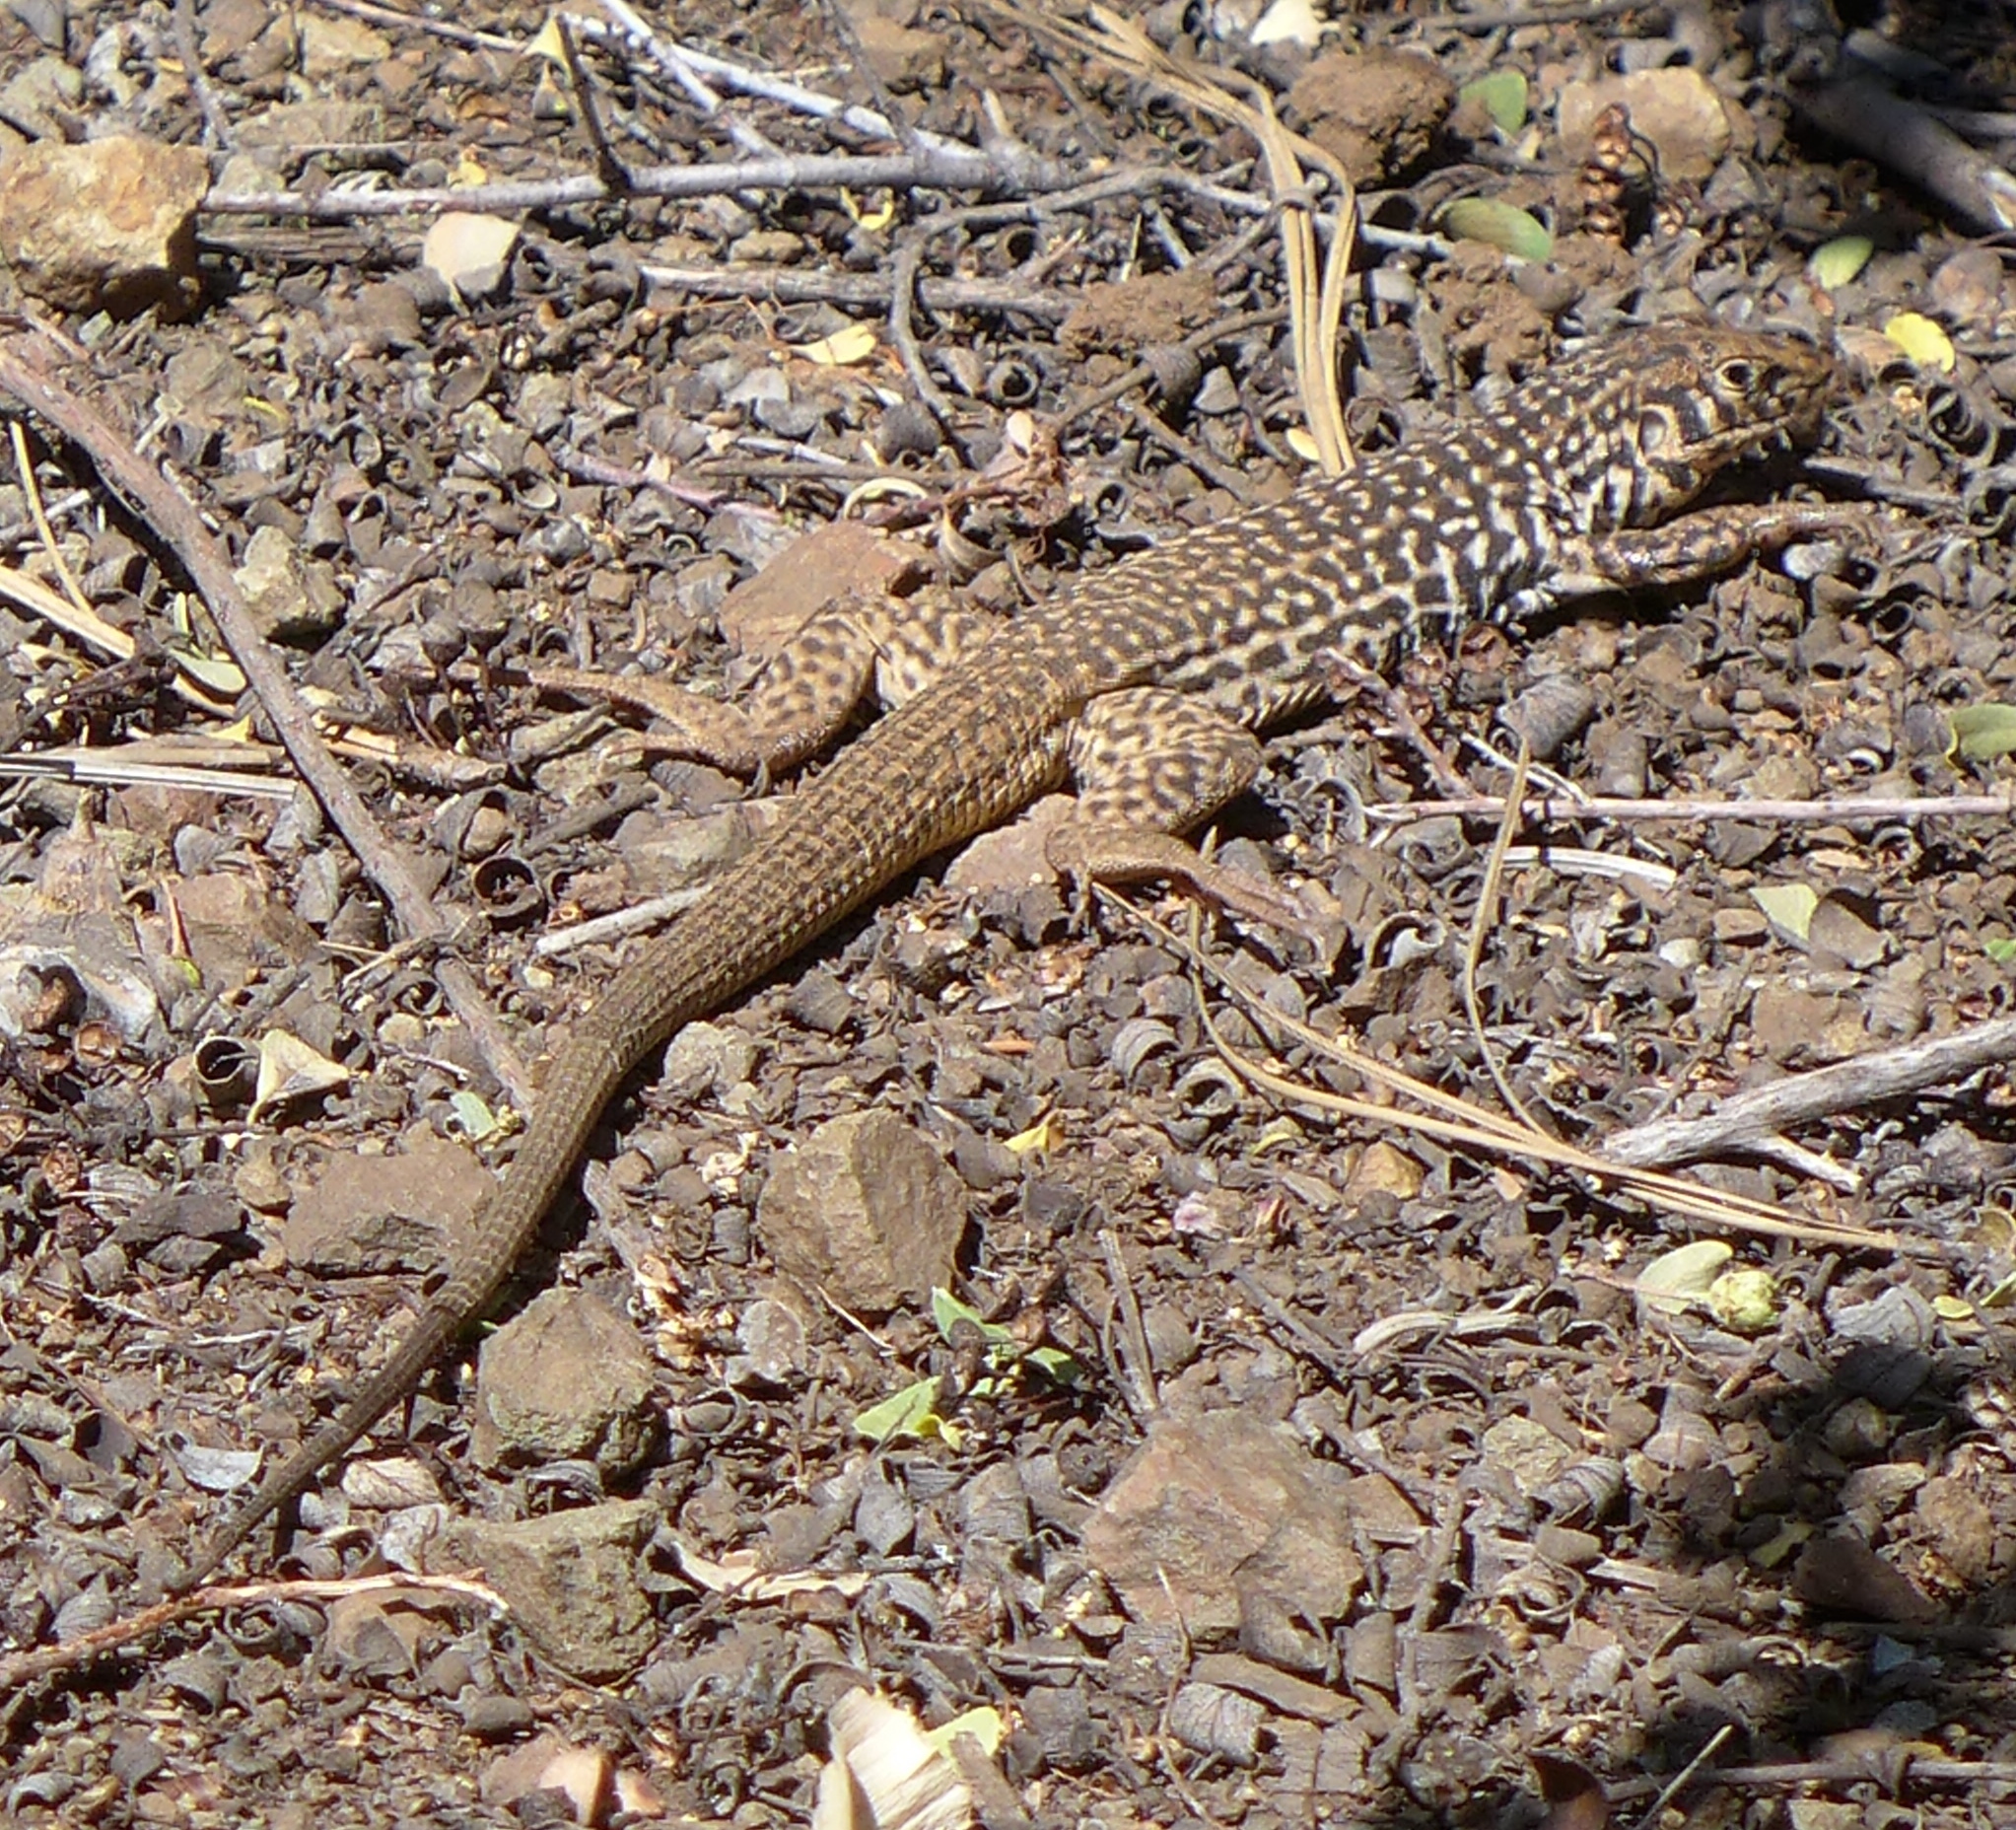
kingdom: Animalia
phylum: Chordata
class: Squamata
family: Teiidae
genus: Aspidoscelis
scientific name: Aspidoscelis tigris
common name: Tiger whiptail
